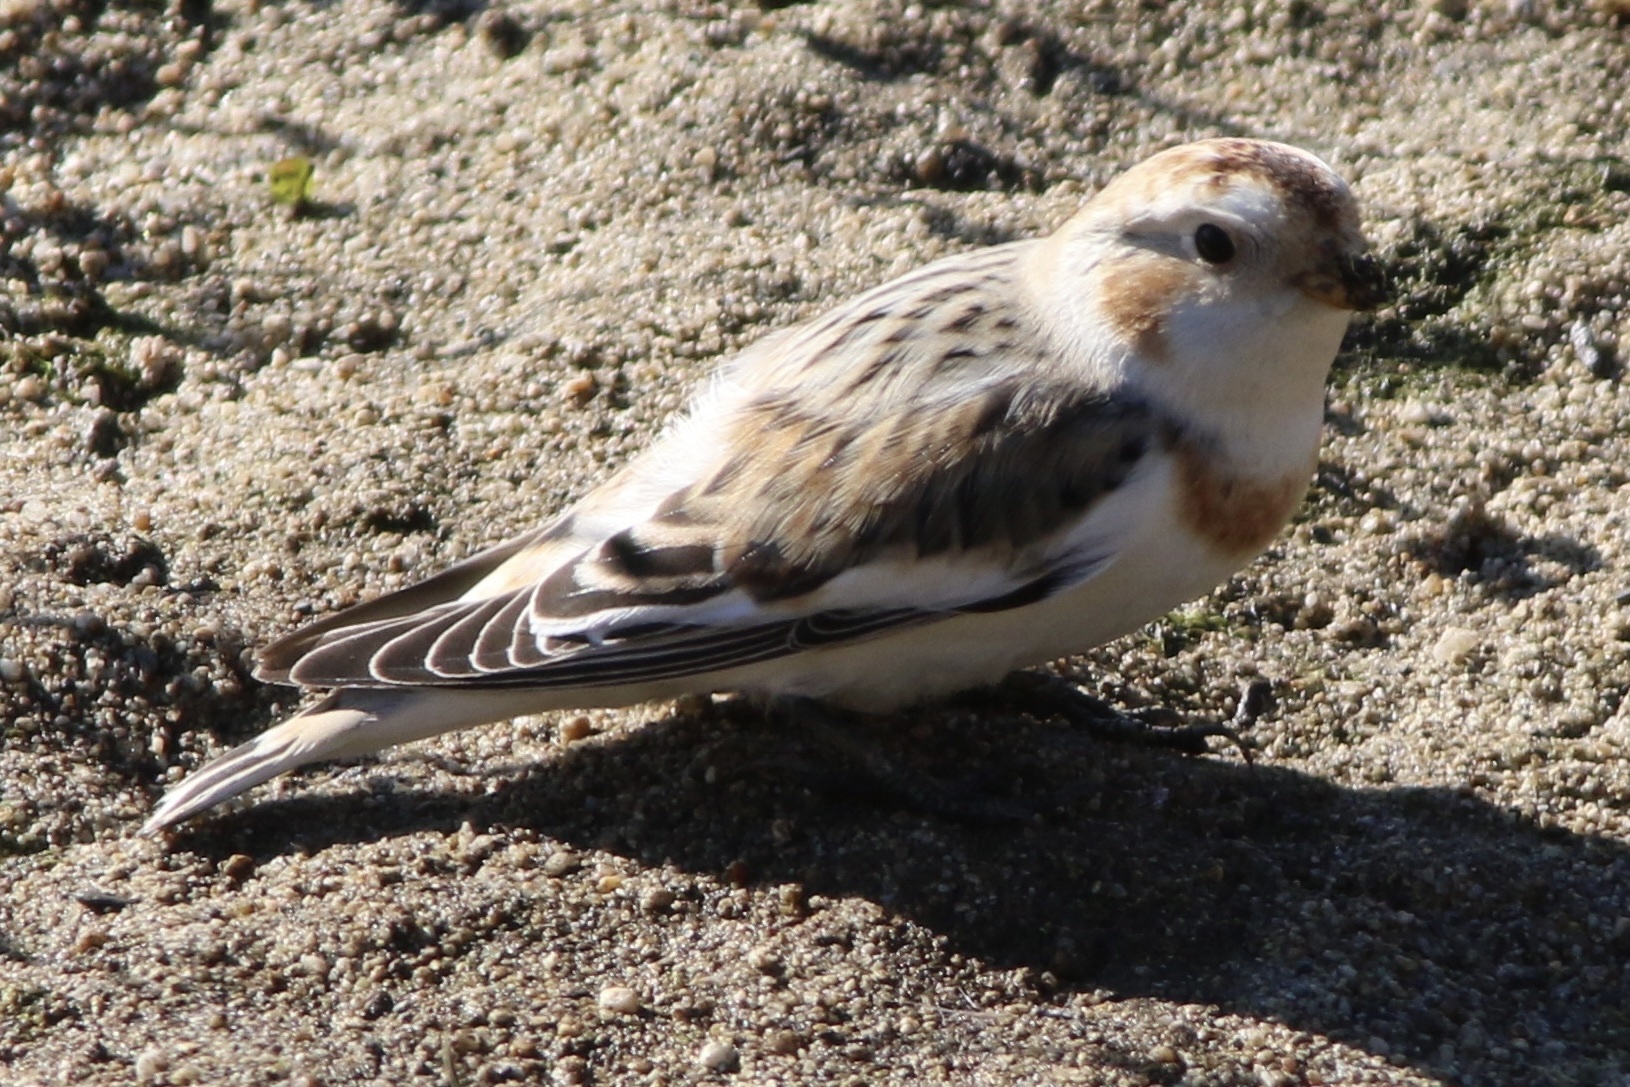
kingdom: Animalia
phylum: Chordata
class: Aves
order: Passeriformes
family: Calcariidae
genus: Plectrophenax
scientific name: Plectrophenax nivalis
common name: Snow bunting
